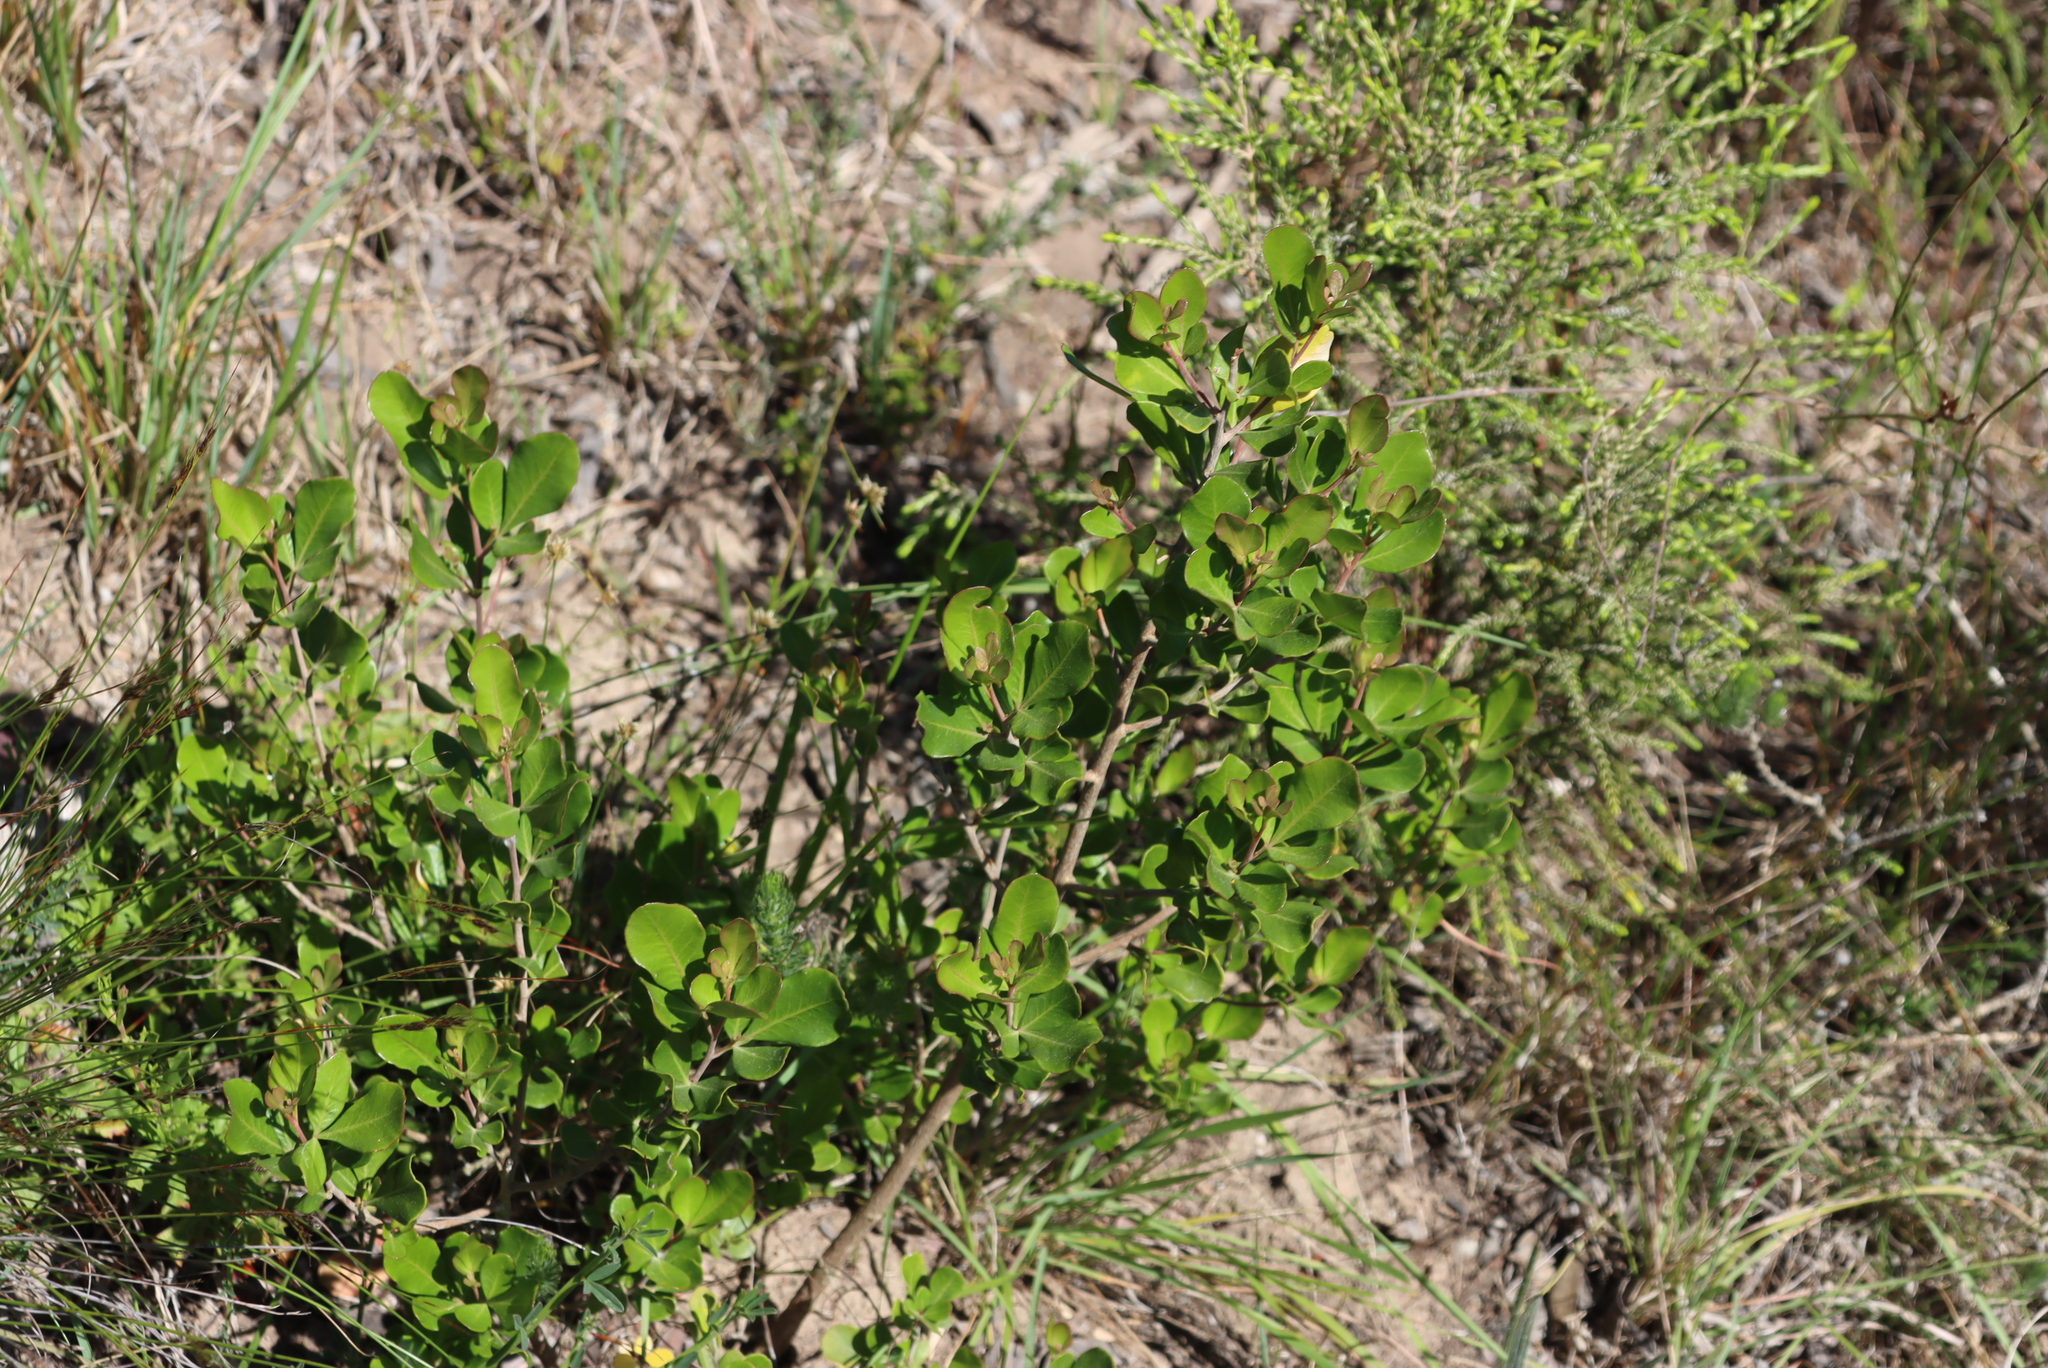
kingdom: Plantae
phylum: Tracheophyta
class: Magnoliopsida
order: Sapindales
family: Anacardiaceae
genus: Searsia
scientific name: Searsia lucida
